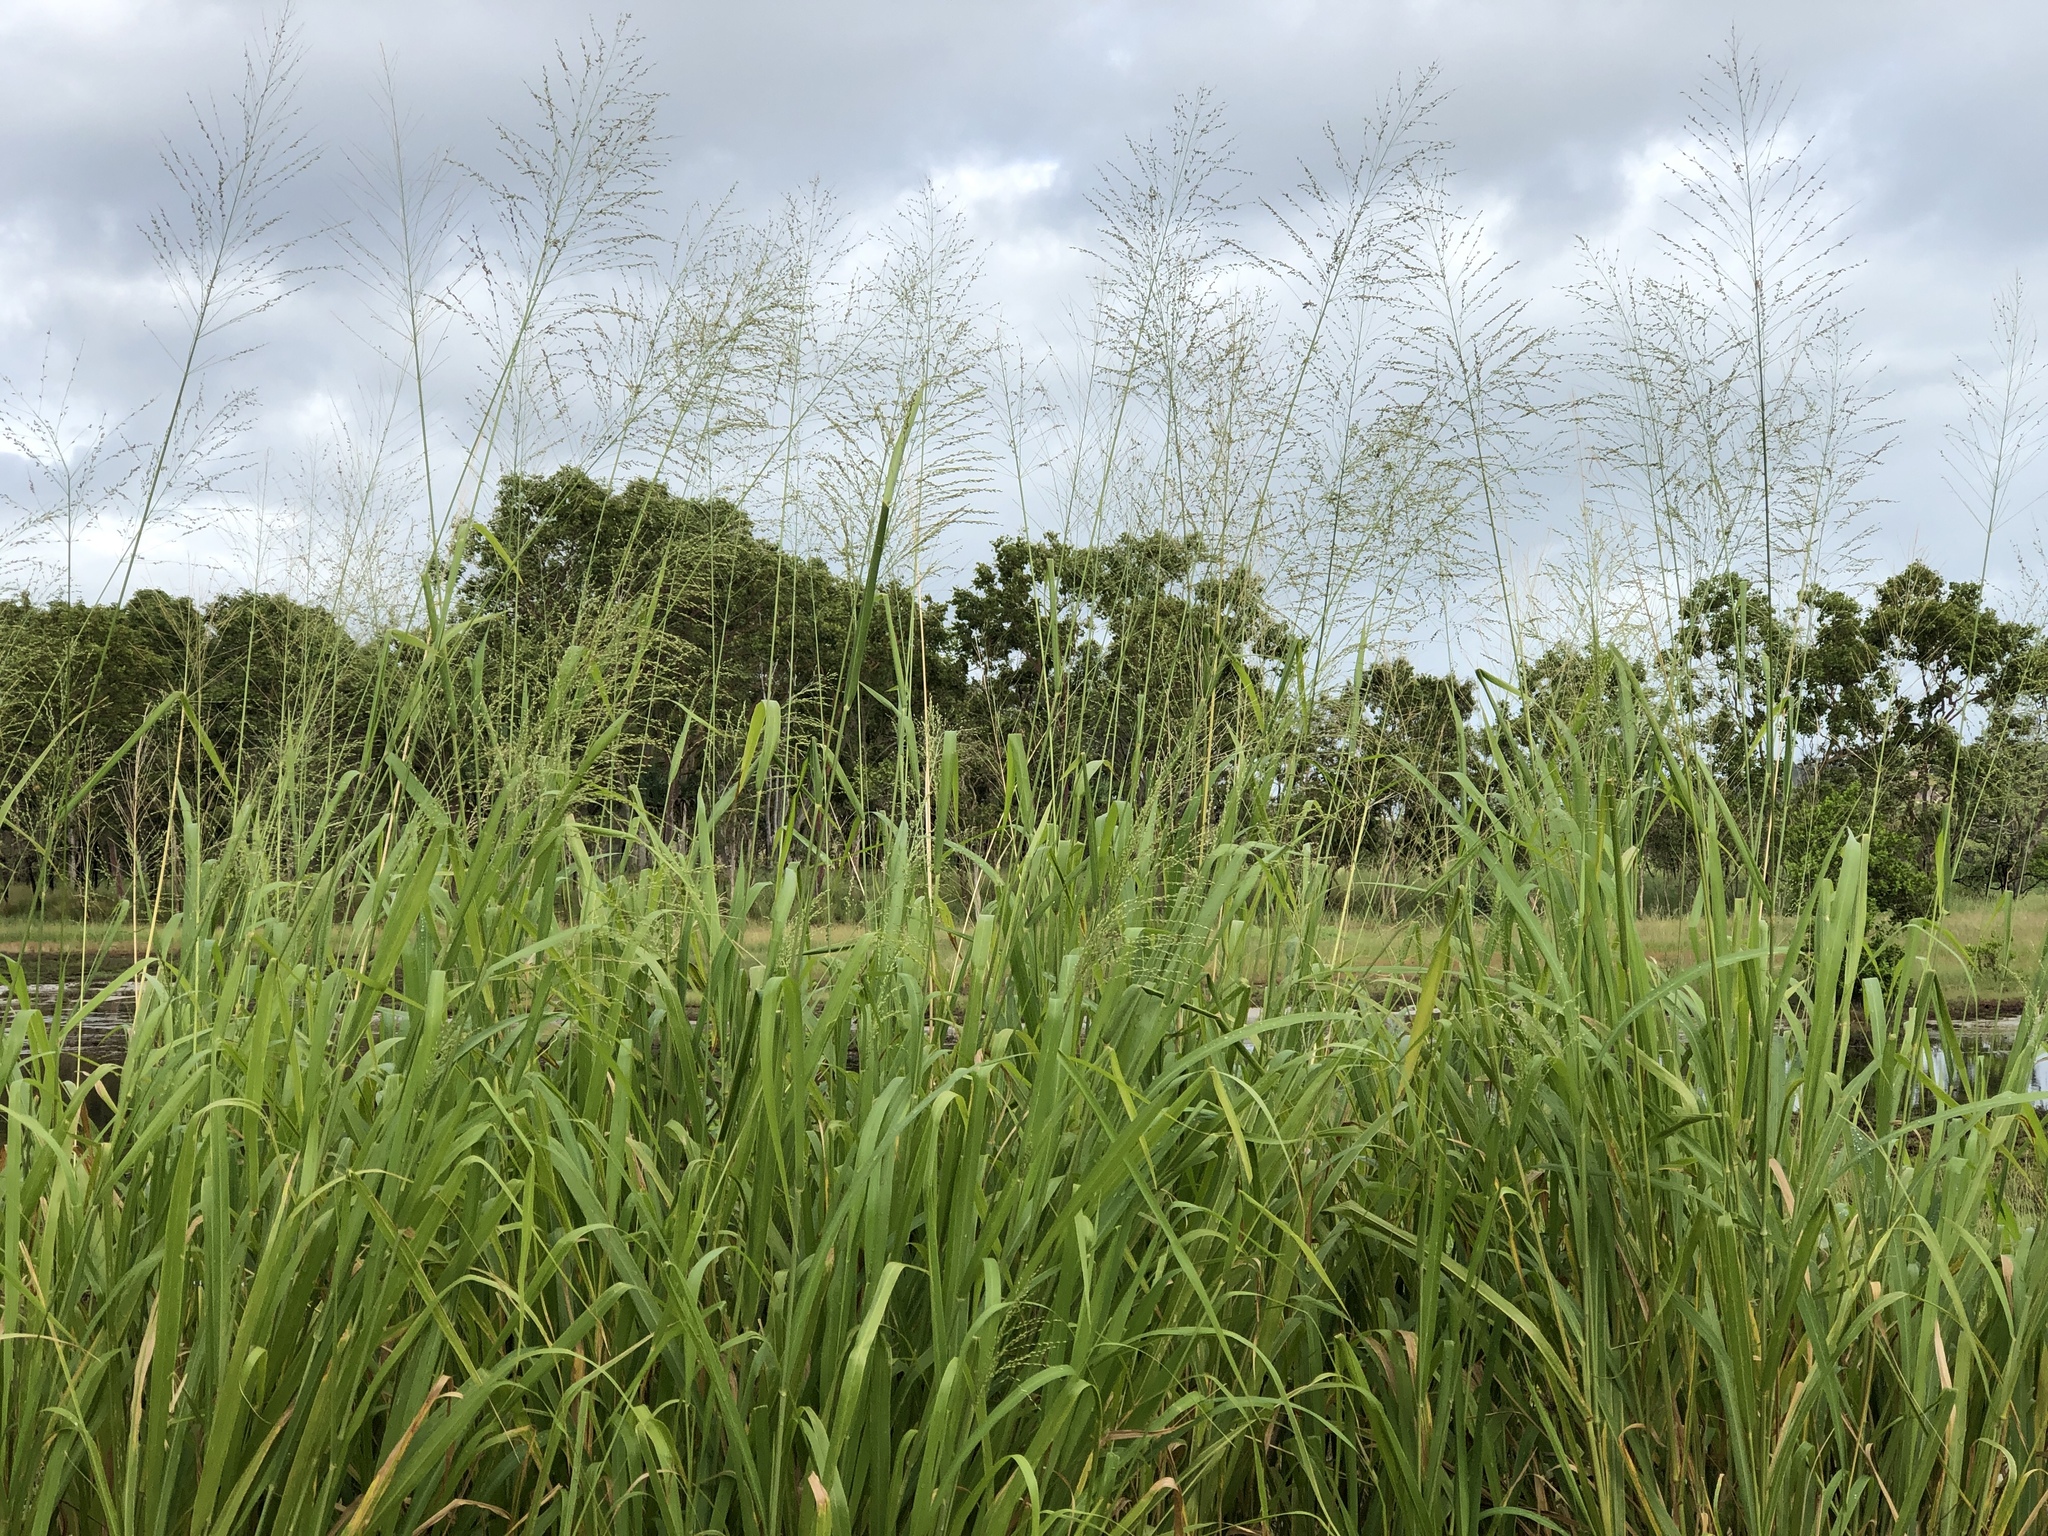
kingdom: Plantae
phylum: Tracheophyta
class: Liliopsida
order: Poales
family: Poaceae
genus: Megathyrsus
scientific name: Megathyrsus maximus
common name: Guineagrass
